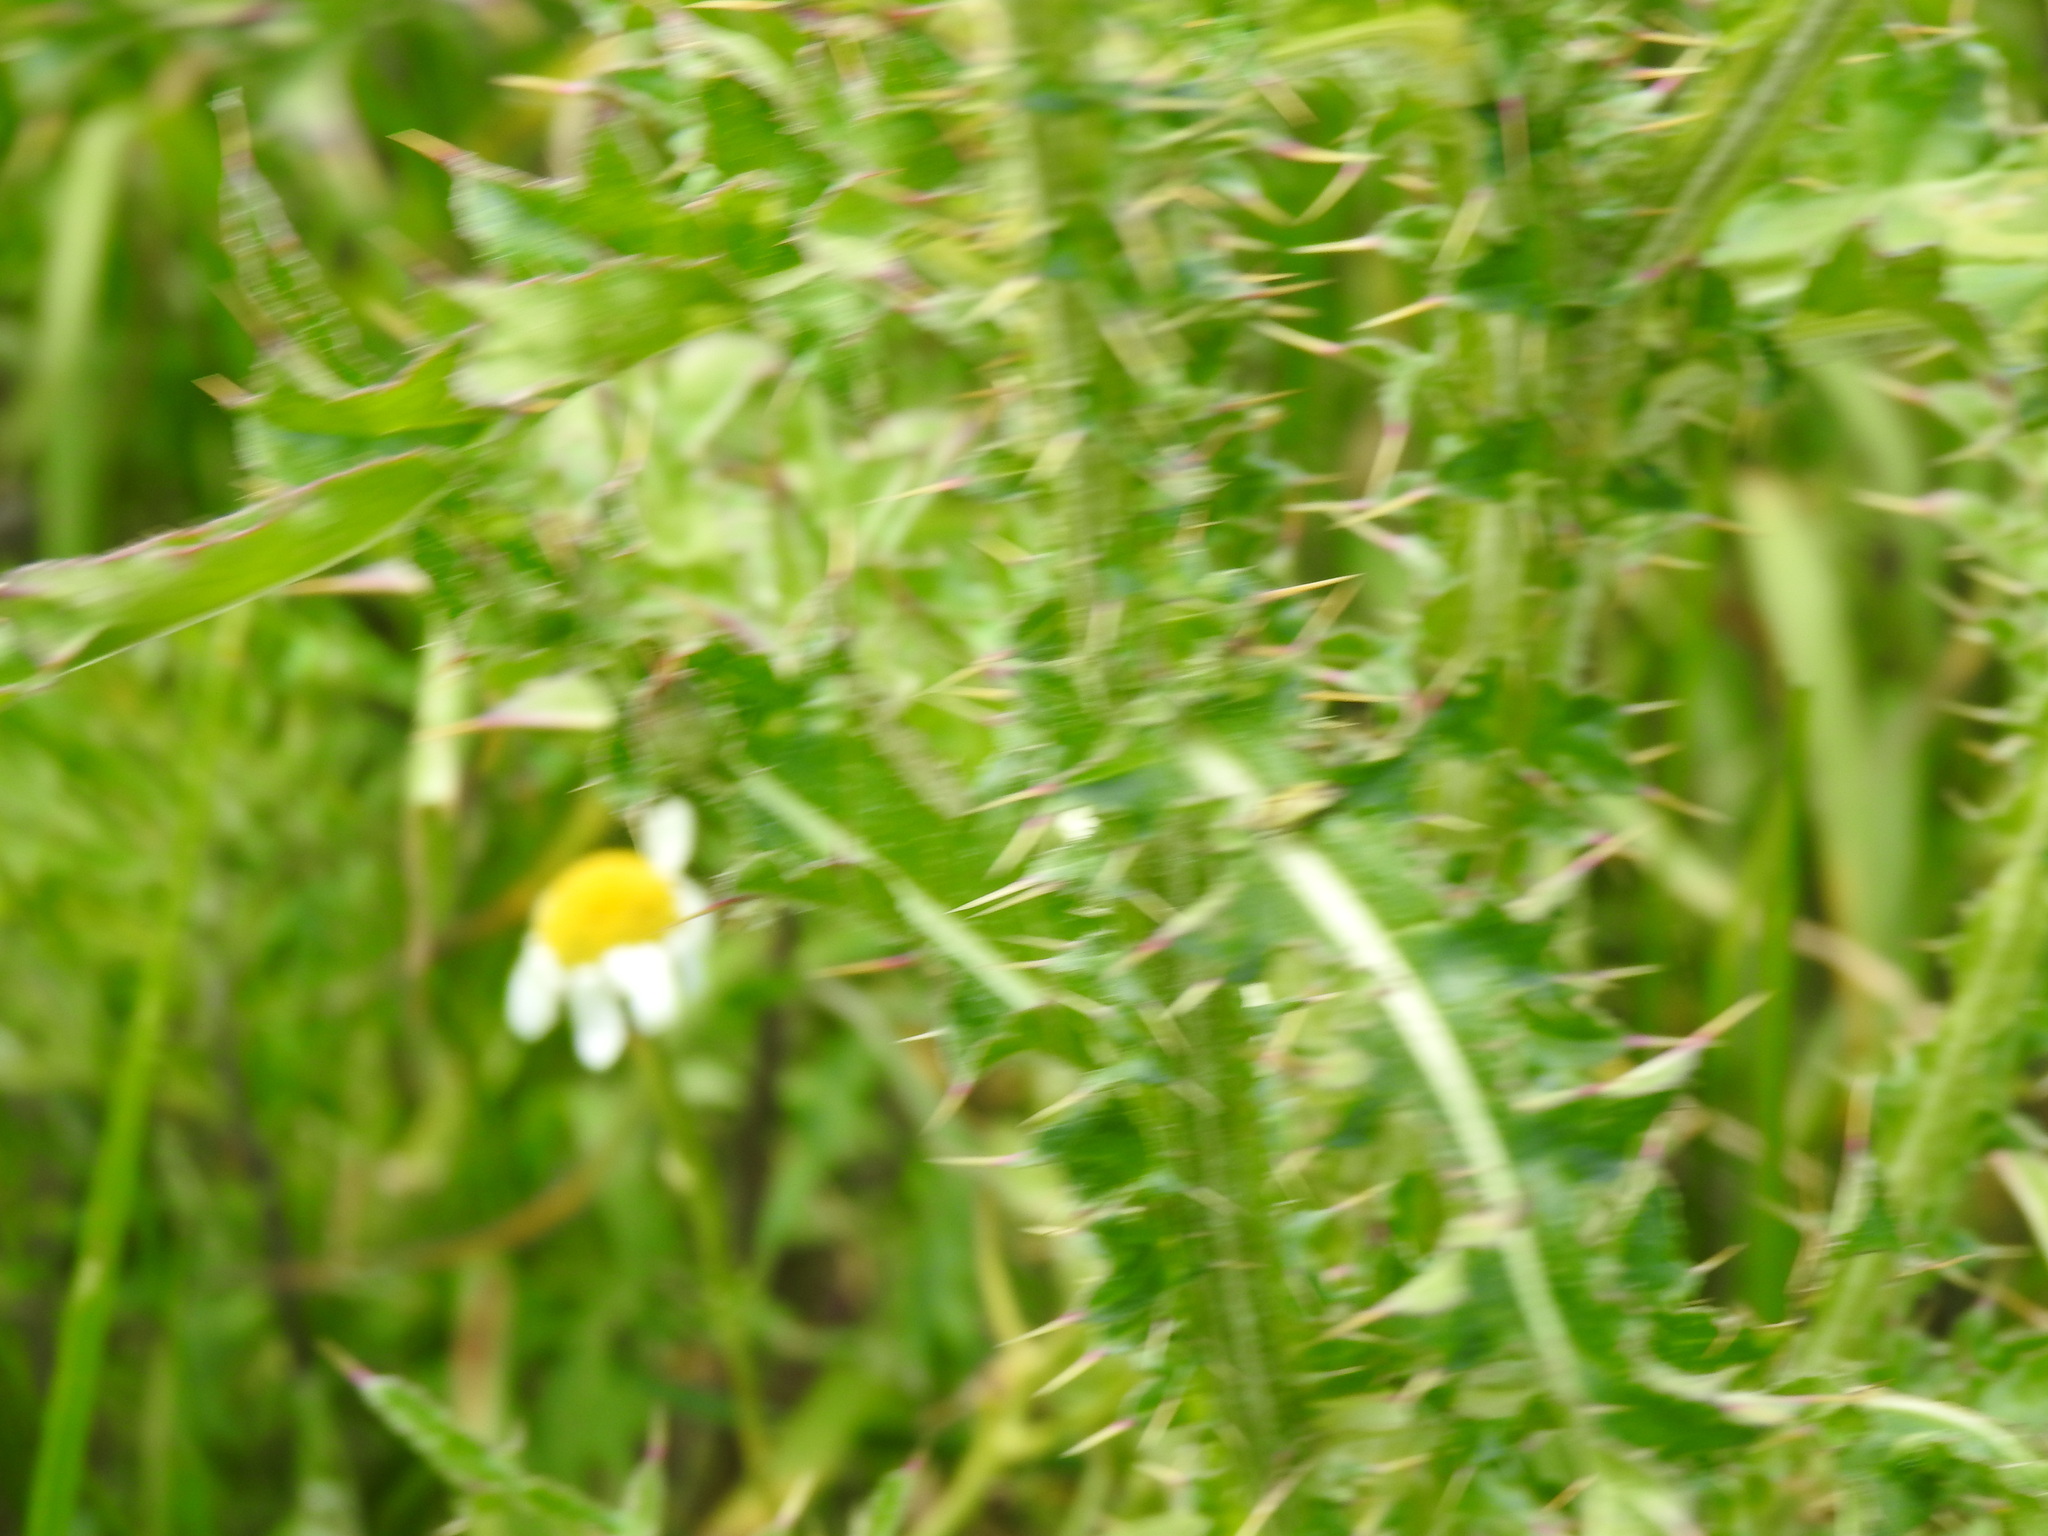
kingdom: Plantae
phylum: Tracheophyta
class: Magnoliopsida
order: Asterales
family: Asteraceae
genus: Carduus
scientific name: Carduus nutans
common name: Musk thistle
